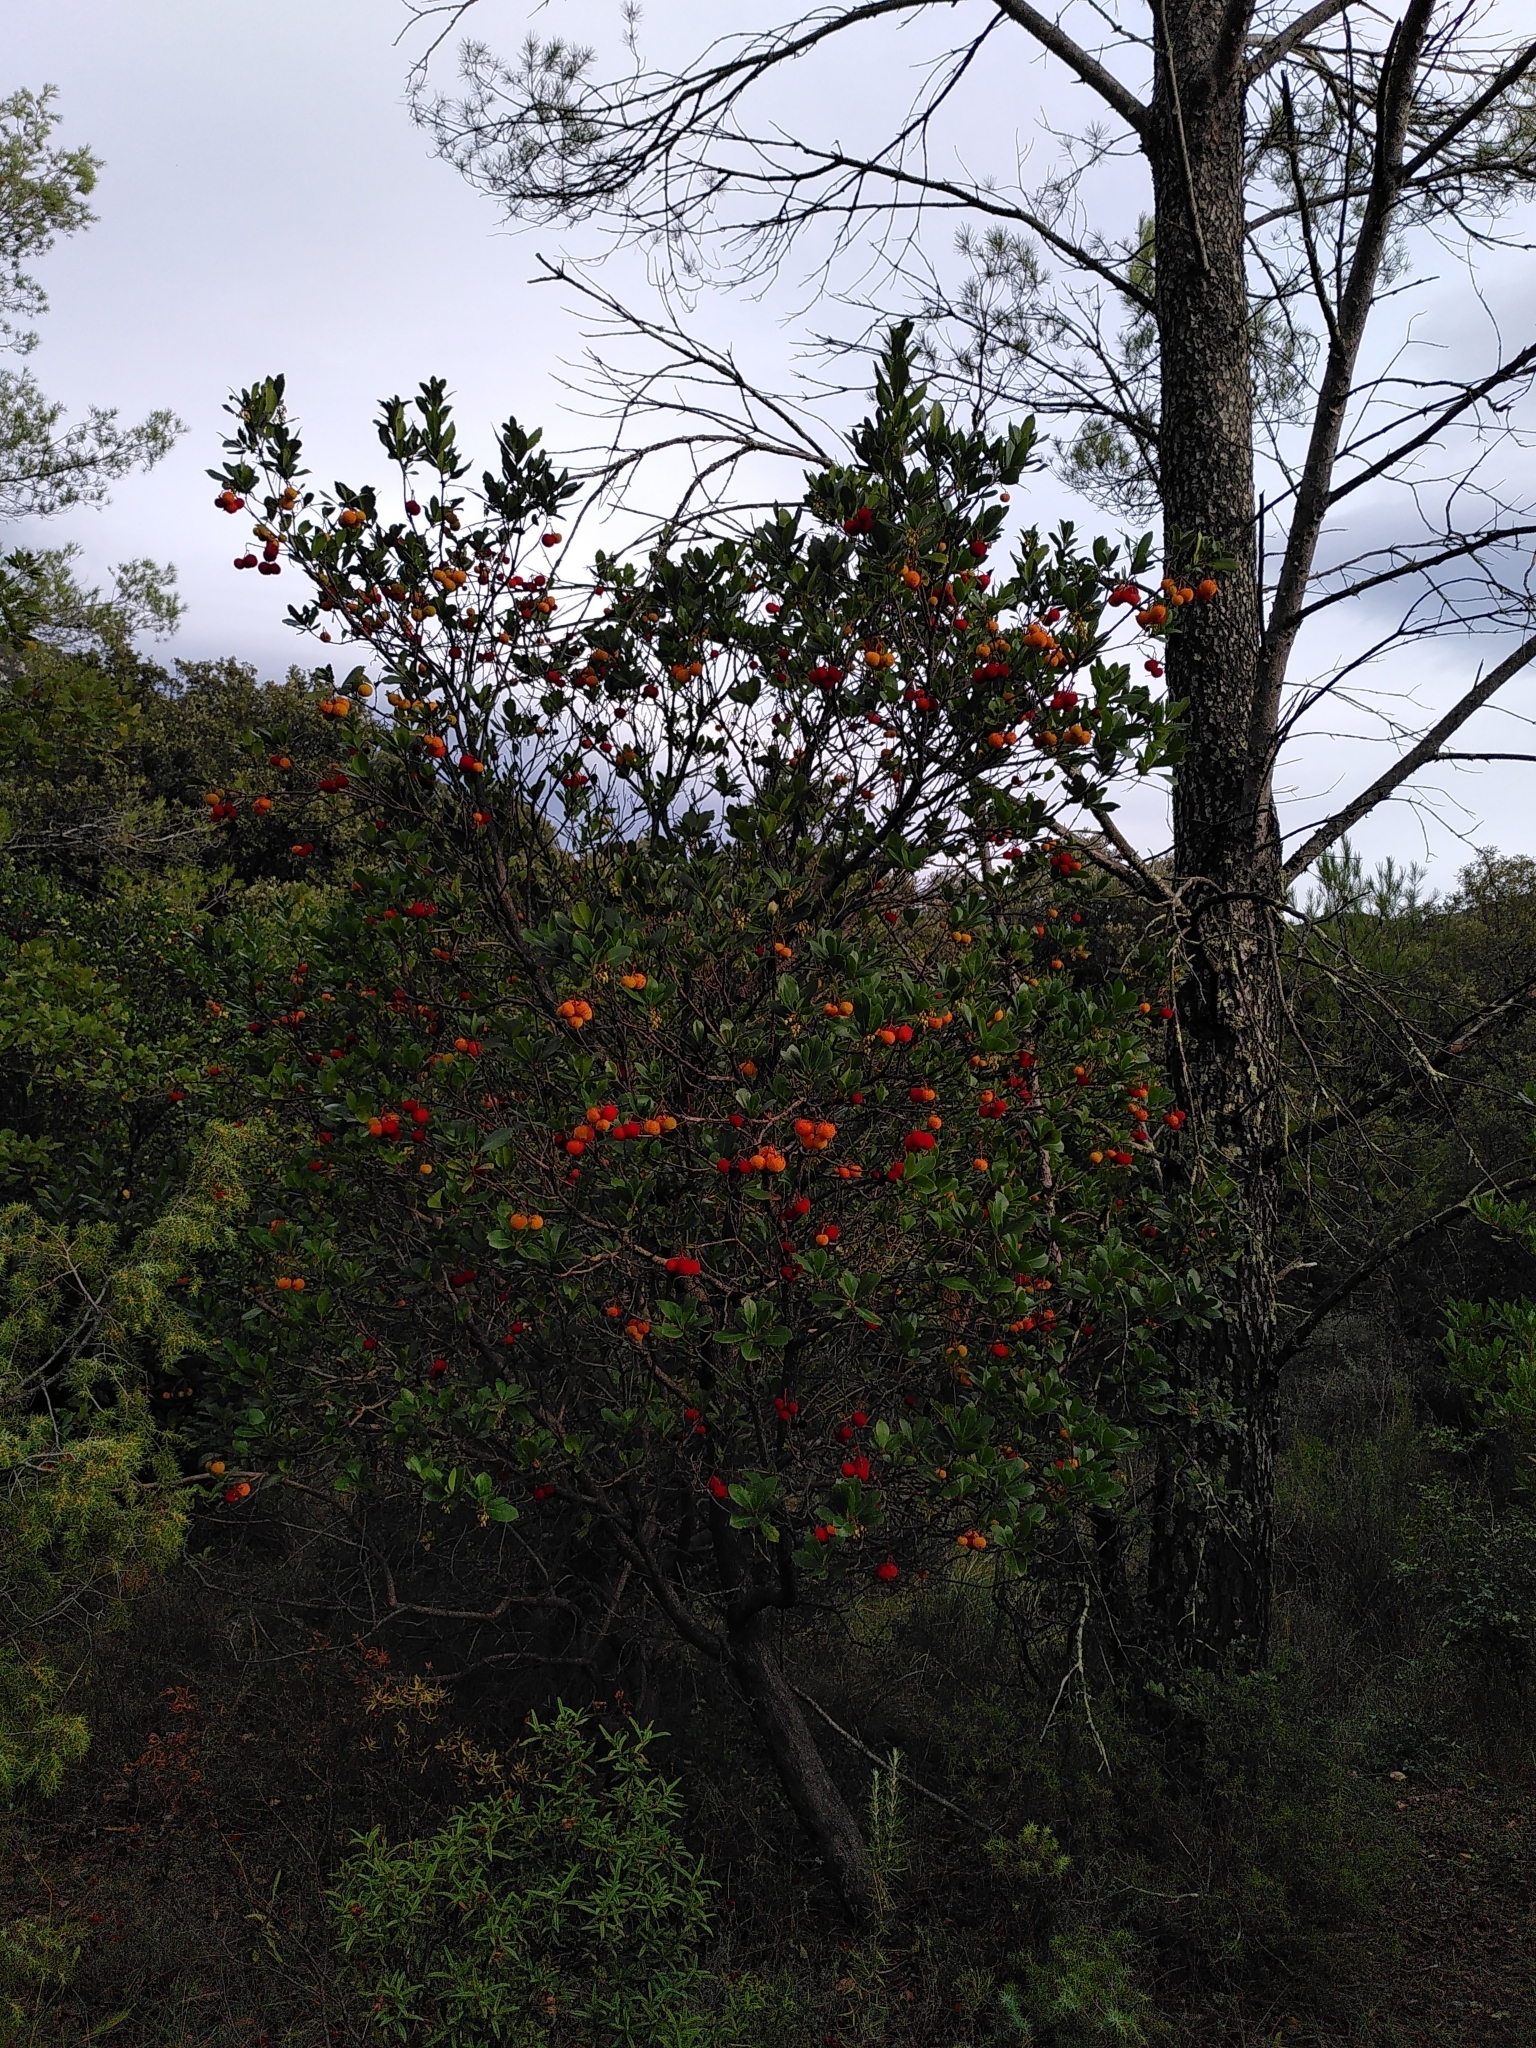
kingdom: Plantae
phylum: Tracheophyta
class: Magnoliopsida
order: Ericales
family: Ericaceae
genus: Arbutus
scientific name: Arbutus unedo
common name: Strawberry-tree
